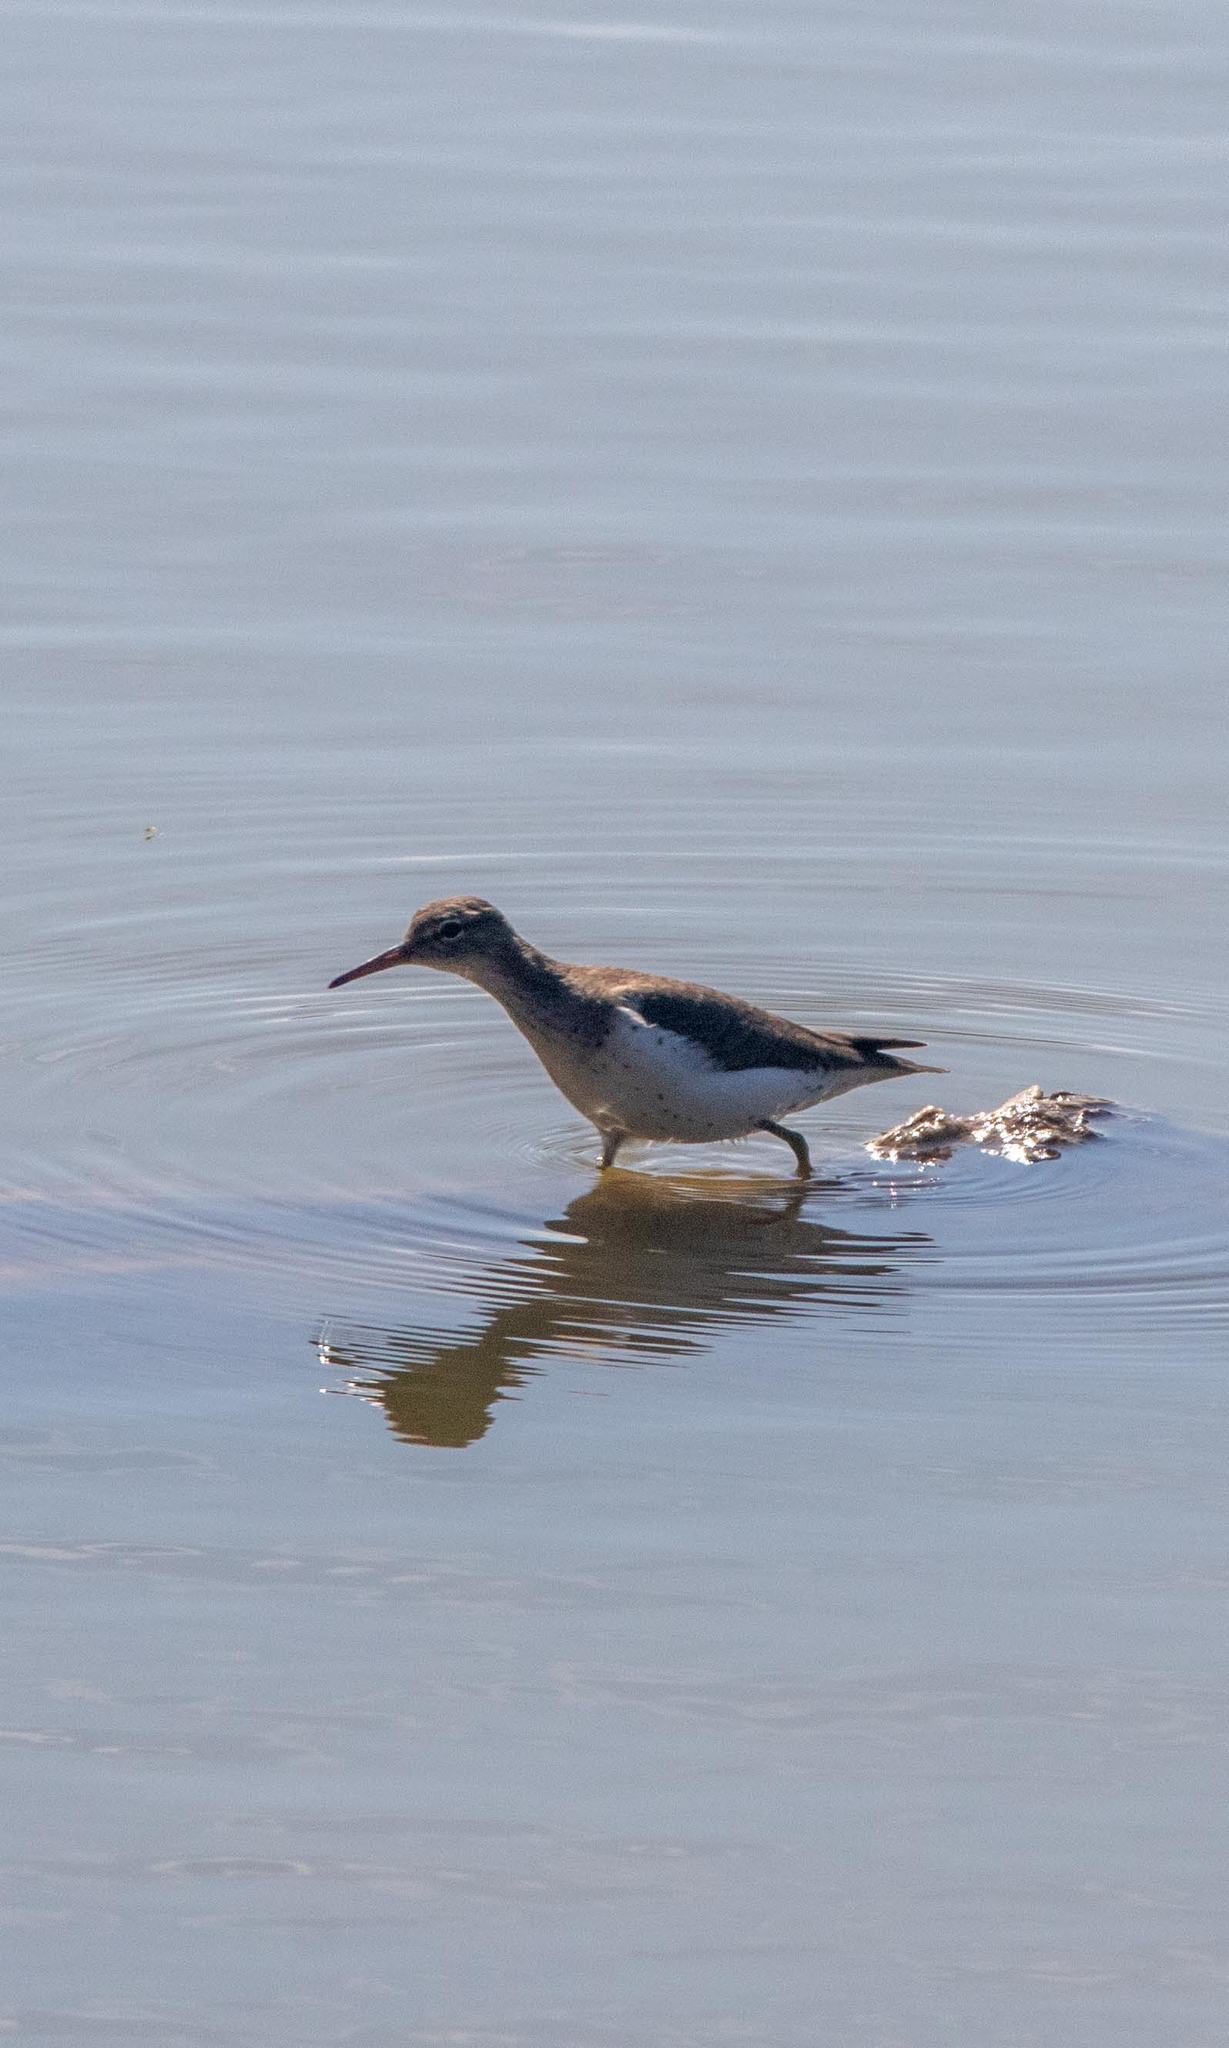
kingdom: Animalia
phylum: Chordata
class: Aves
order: Charadriiformes
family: Scolopacidae
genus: Actitis
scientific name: Actitis macularius
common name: Spotted sandpiper
